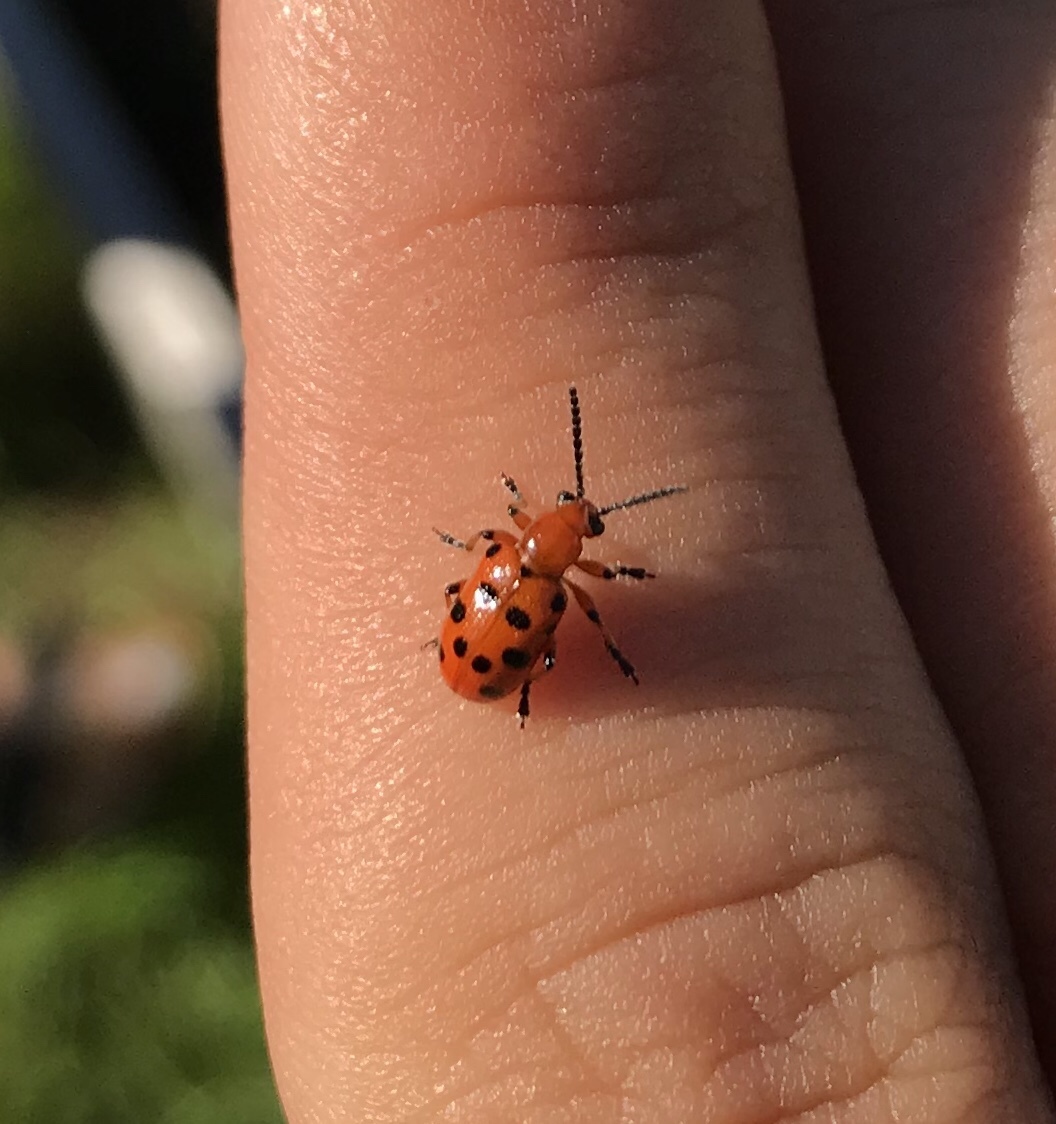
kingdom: Animalia
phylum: Arthropoda
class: Insecta
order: Coleoptera
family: Chrysomelidae
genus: Crioceris
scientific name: Crioceris duodecimpunctata
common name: Twelve-spotted asparagus beetle
